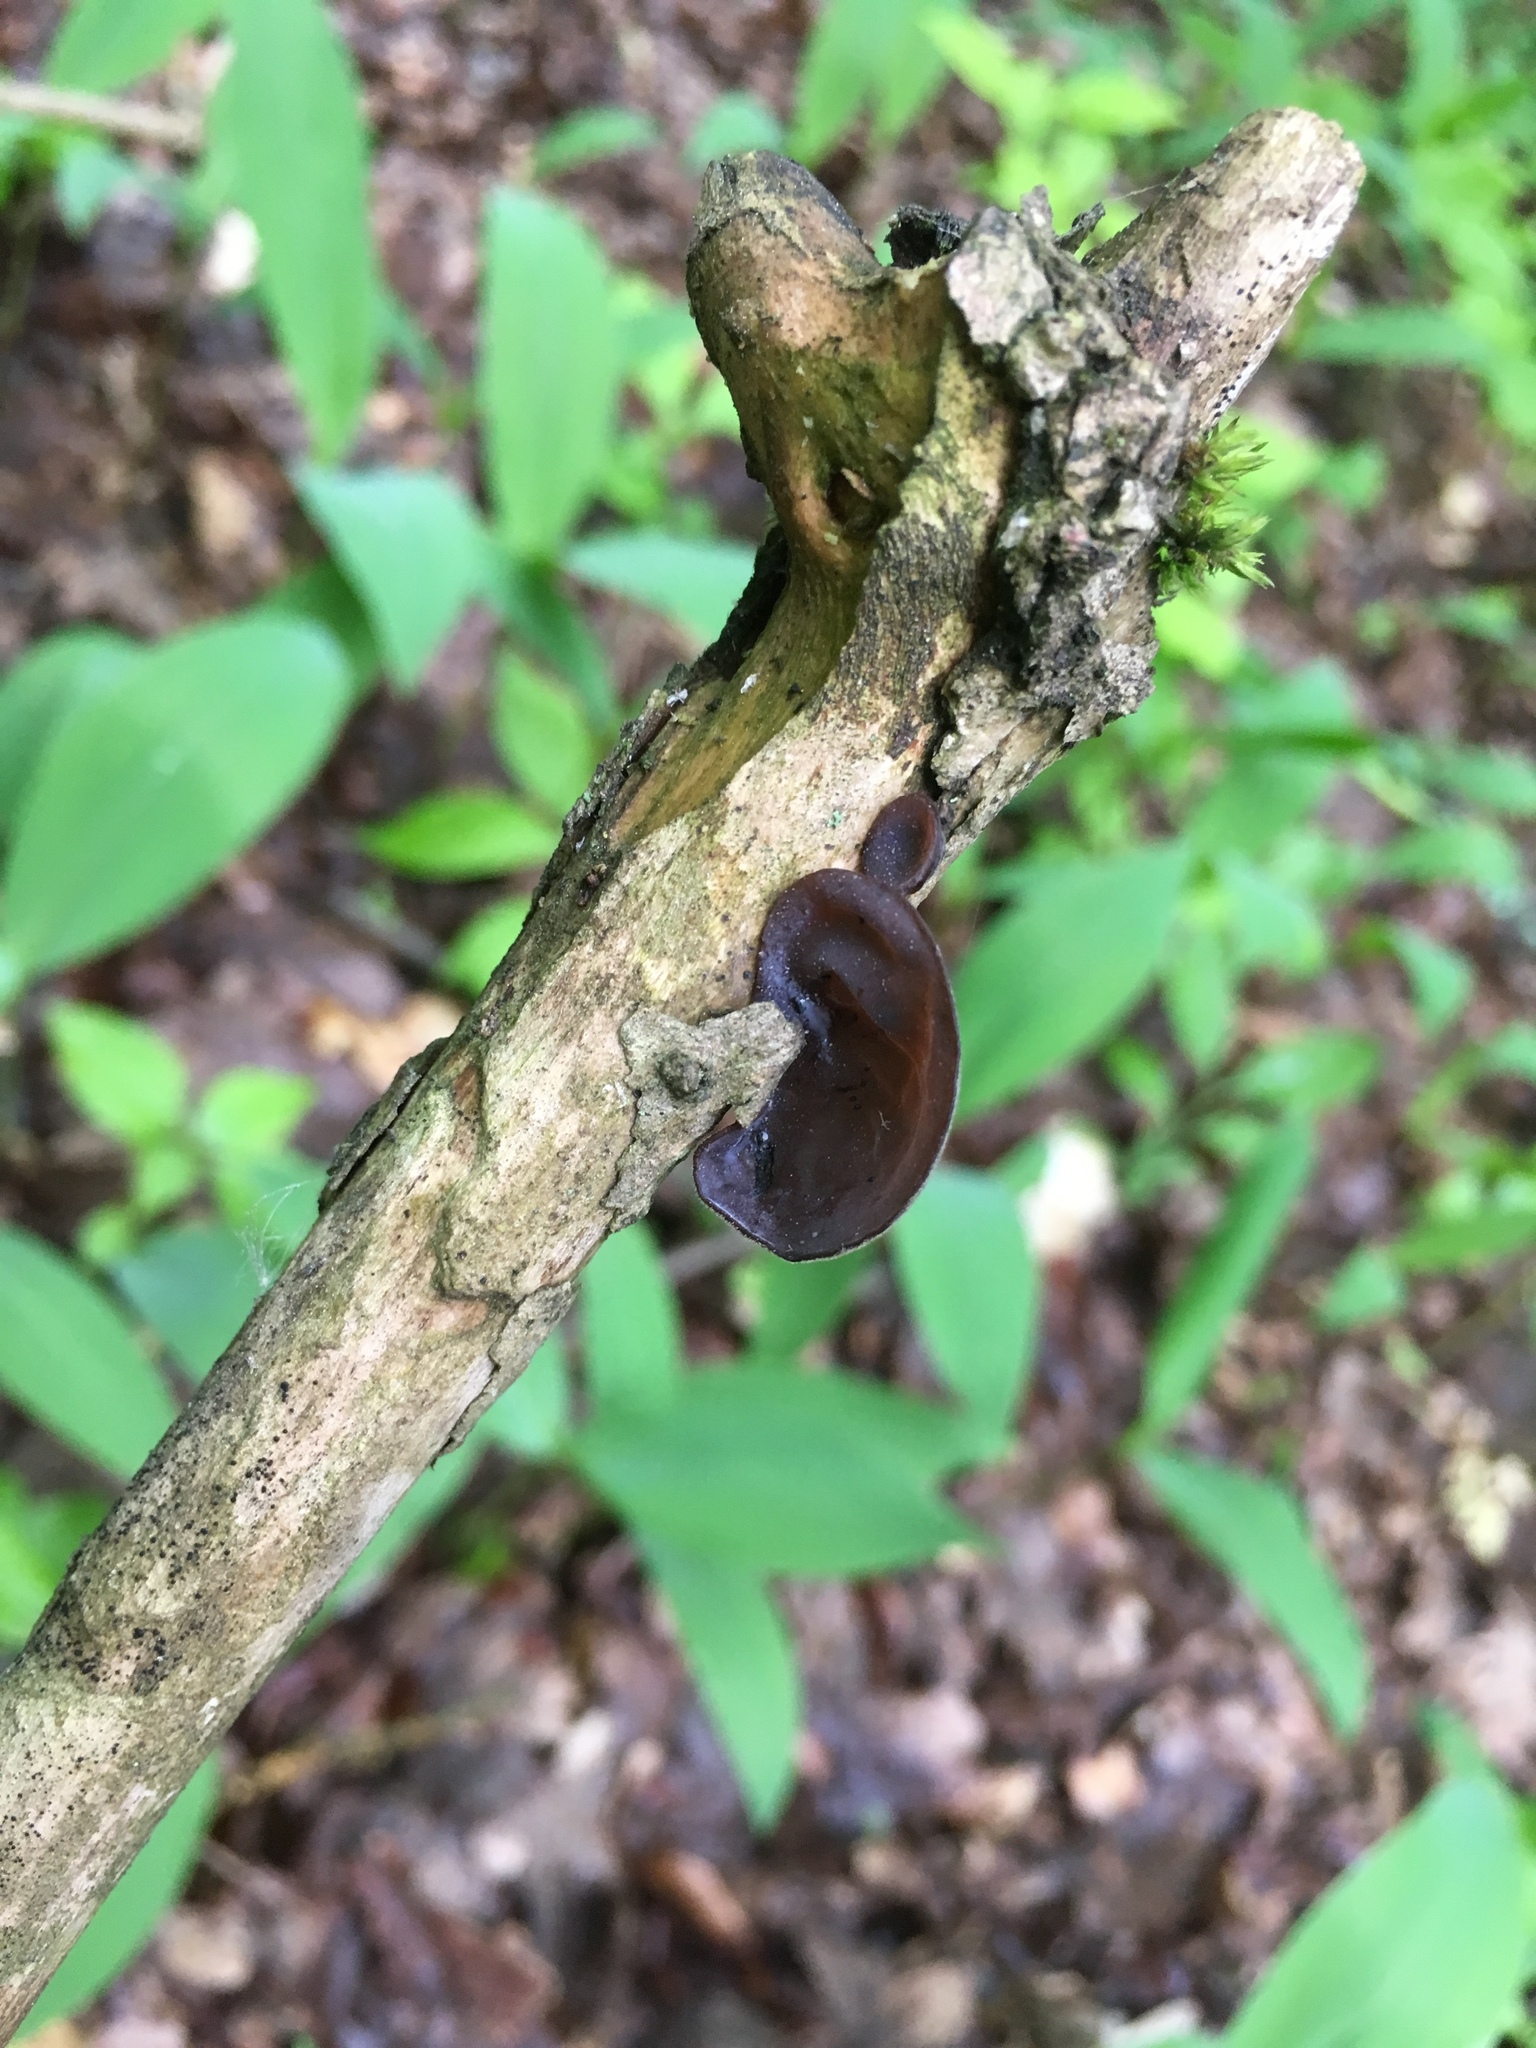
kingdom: Fungi
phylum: Basidiomycota
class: Agaricomycetes
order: Auriculariales
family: Auriculariaceae
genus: Auricularia
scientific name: Auricularia auricula-judae
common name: Jelly ear
